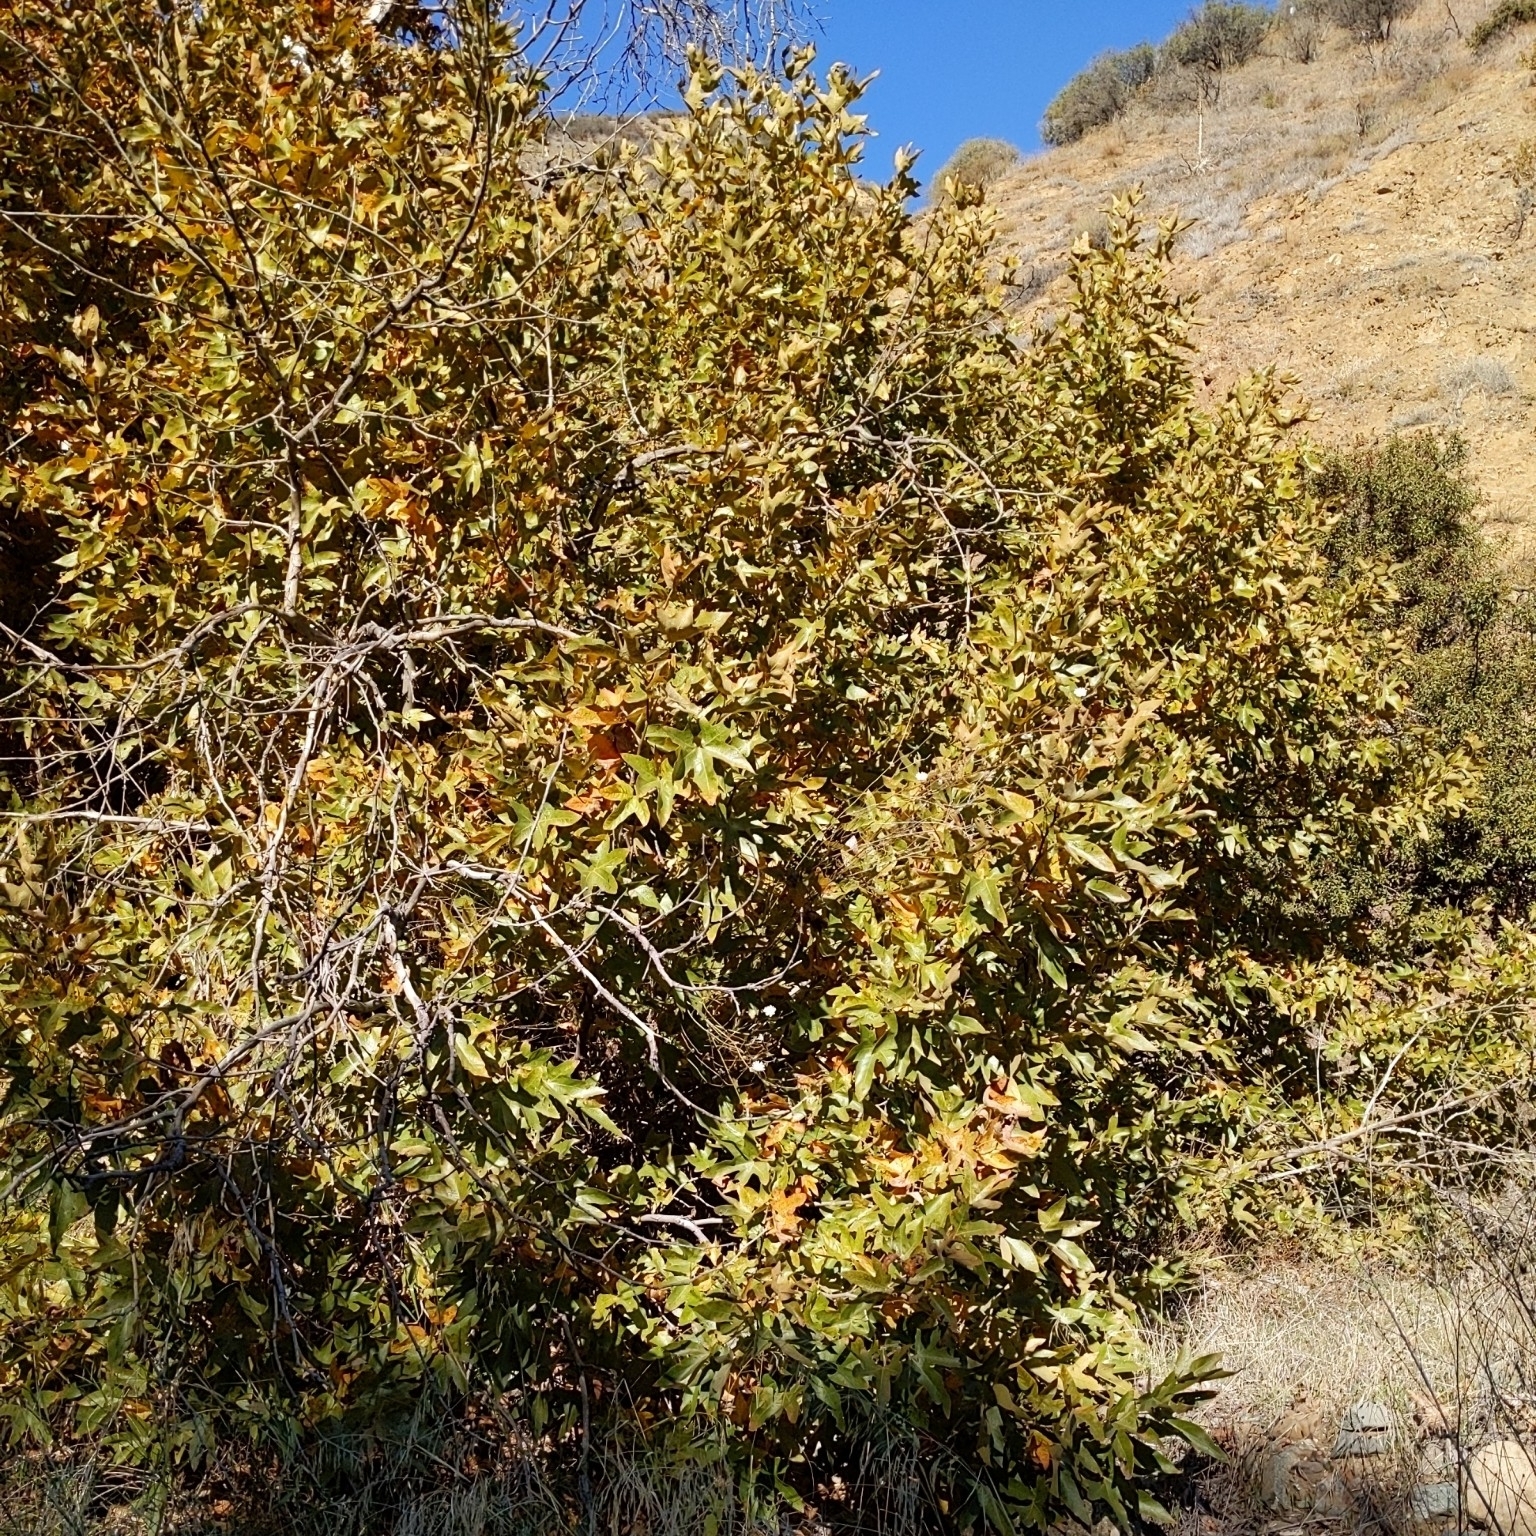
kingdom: Plantae
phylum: Tracheophyta
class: Magnoliopsida
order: Proteales
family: Platanaceae
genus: Platanus
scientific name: Platanus racemosa
